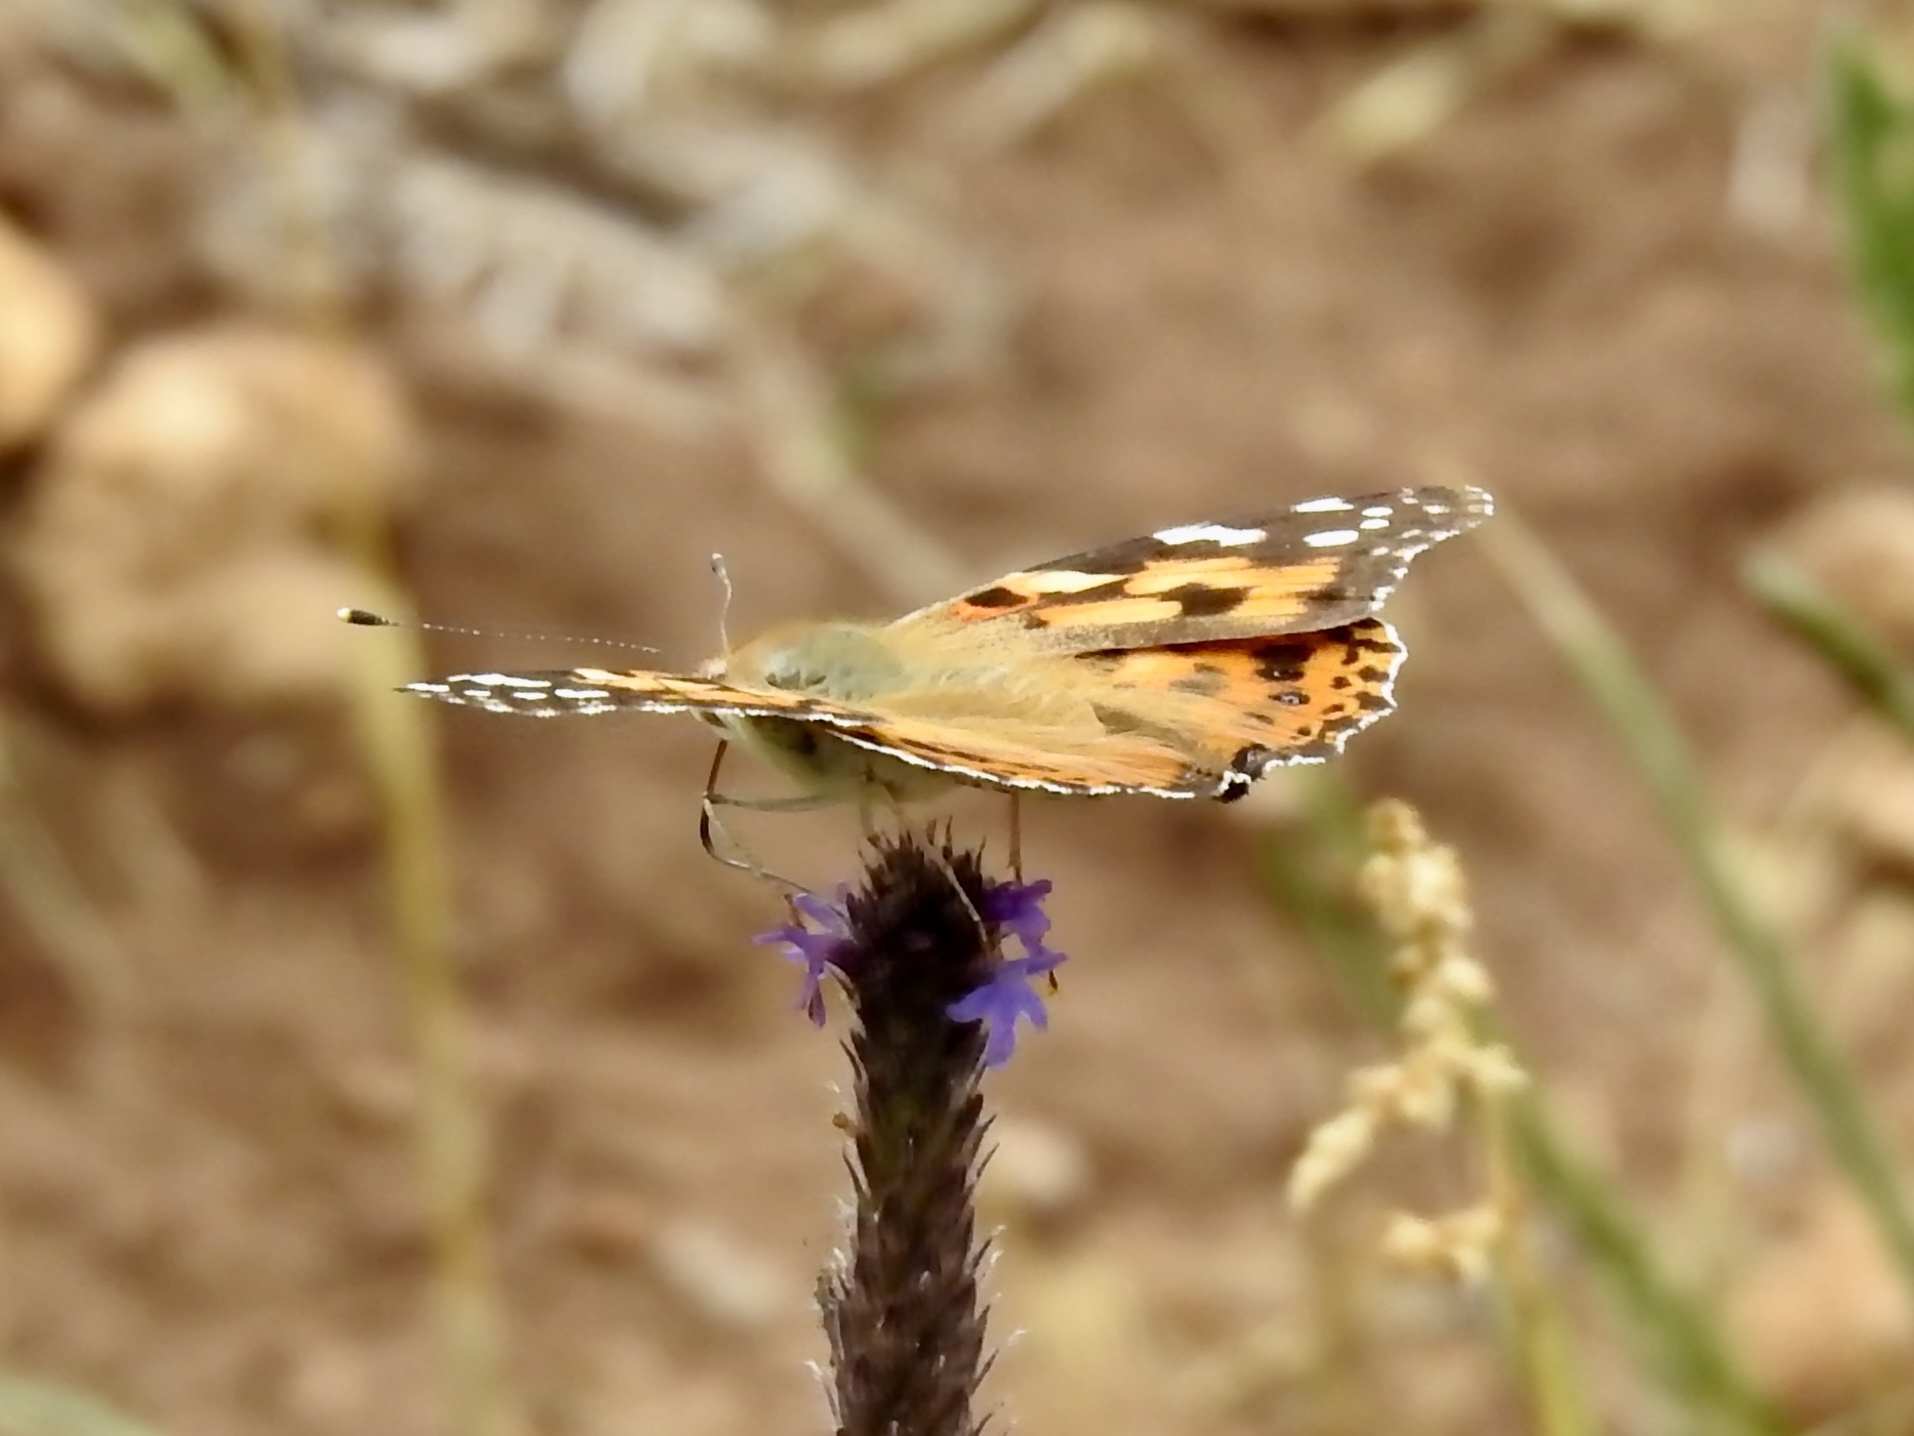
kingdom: Animalia
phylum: Arthropoda
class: Insecta
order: Lepidoptera
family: Nymphalidae
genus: Vanessa
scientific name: Vanessa cardui
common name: Painted lady
